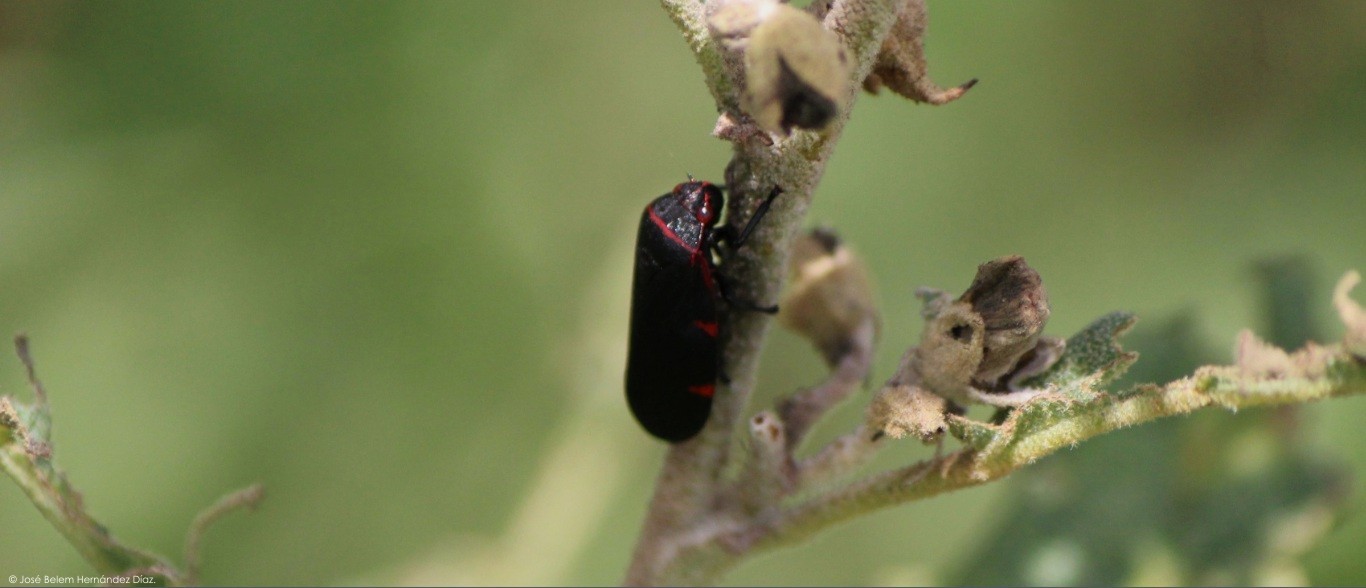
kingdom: Animalia
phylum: Arthropoda
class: Insecta
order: Hemiptera
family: Cercopidae
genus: Prosapia
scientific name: Prosapia
